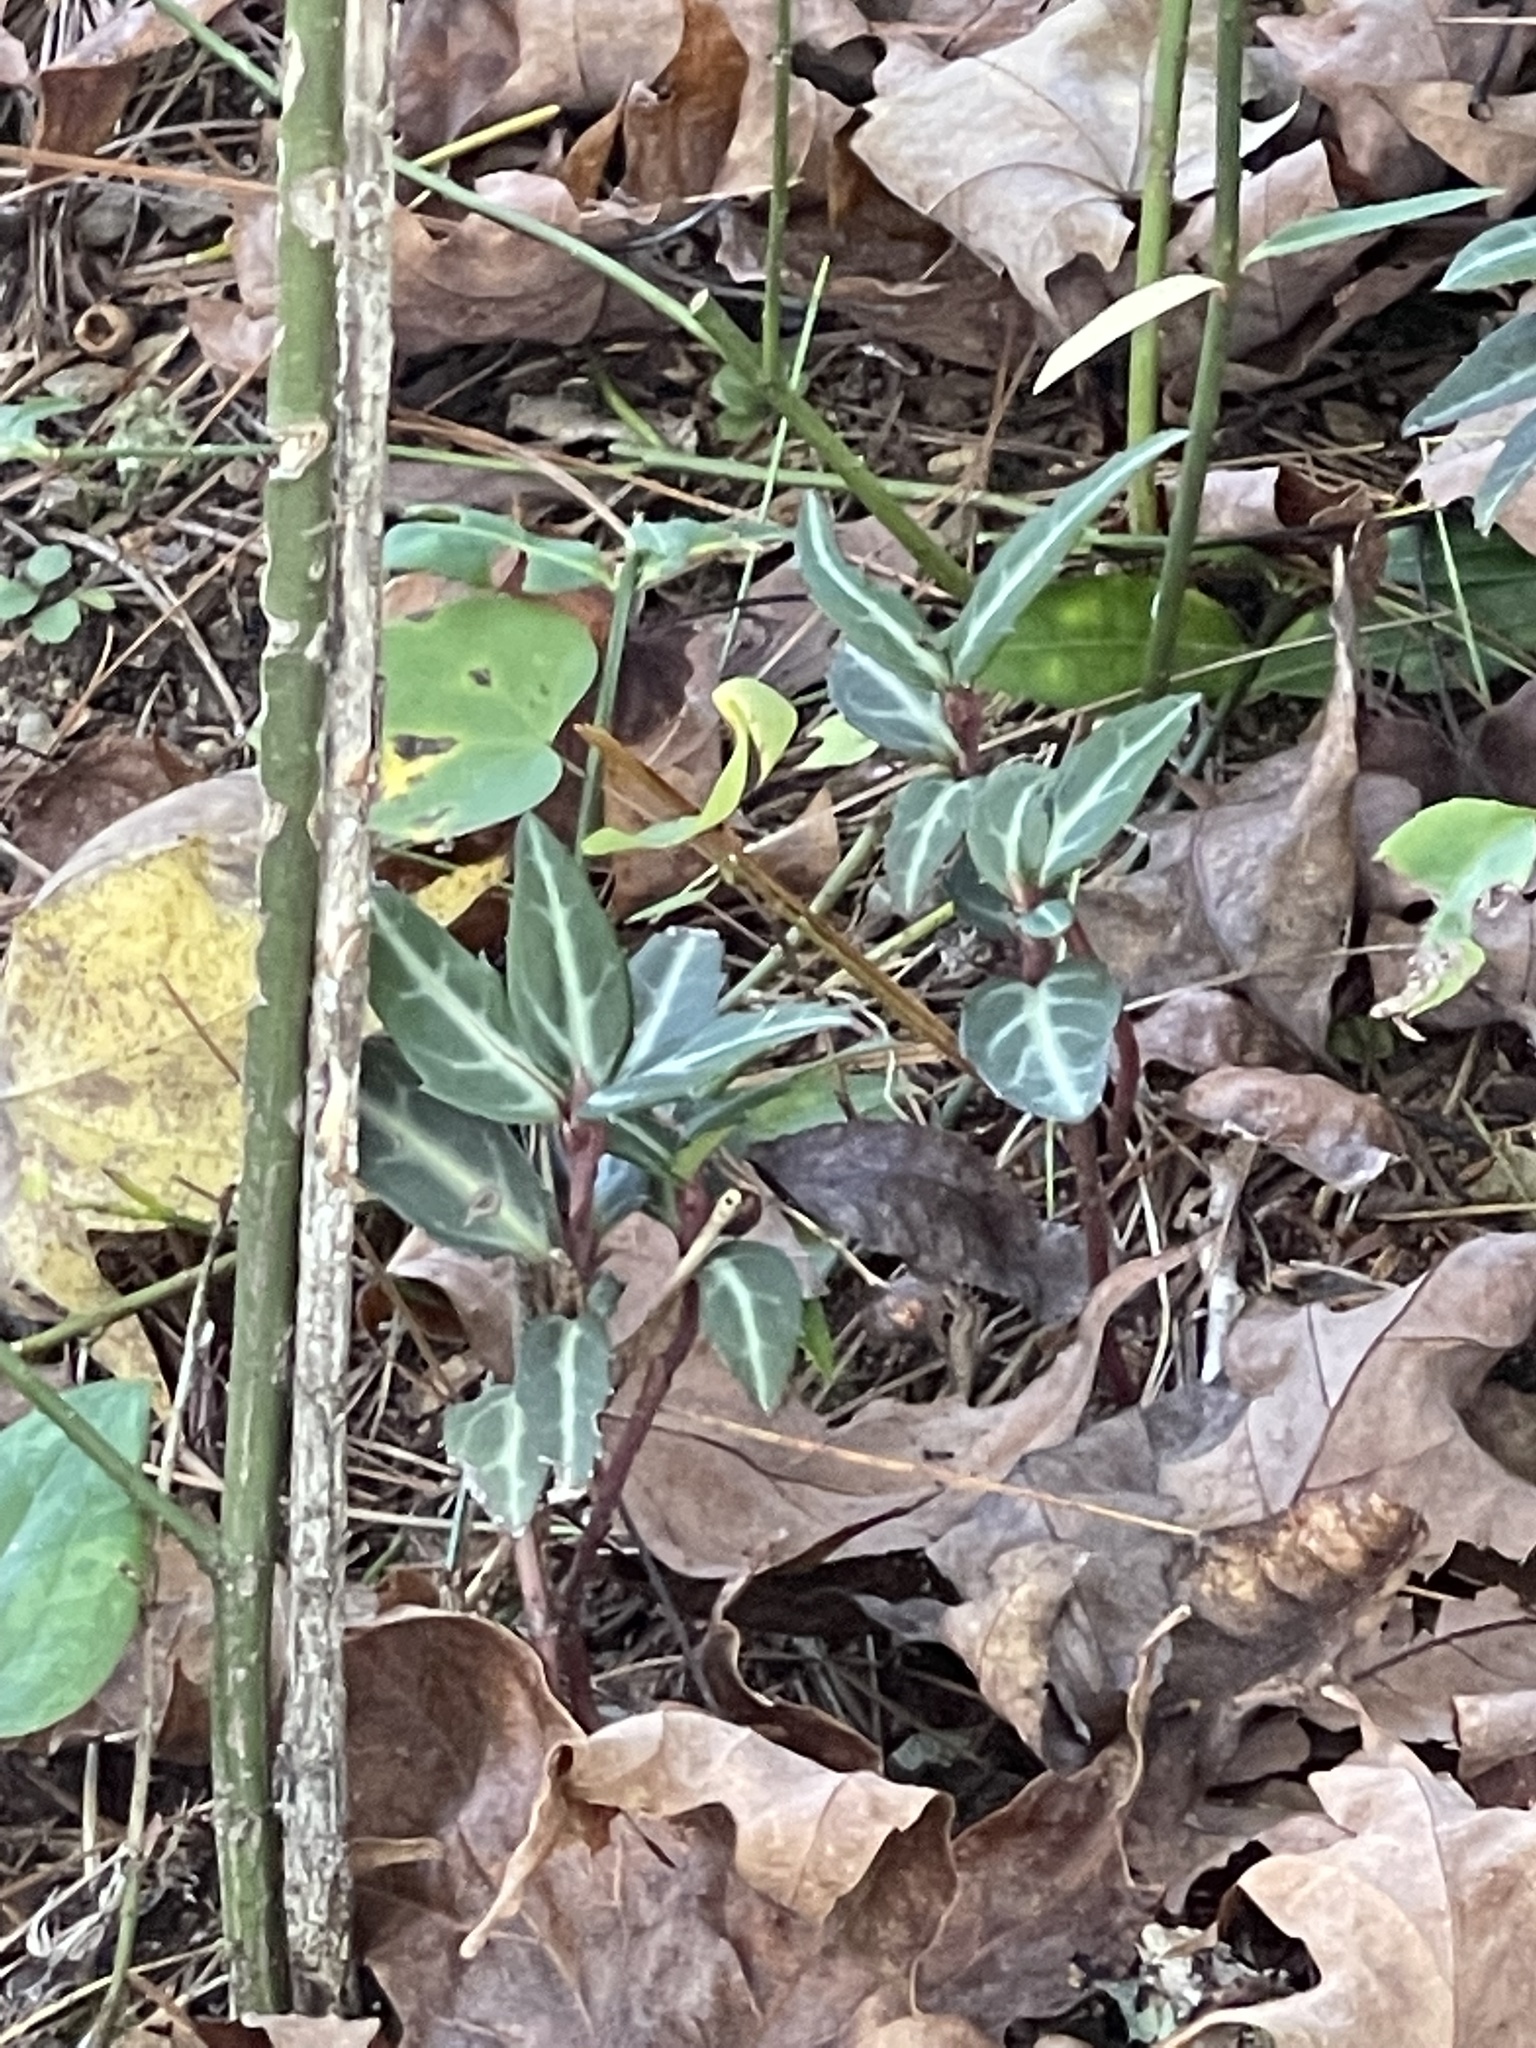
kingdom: Plantae
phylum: Tracheophyta
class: Magnoliopsida
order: Ericales
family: Ericaceae
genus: Chimaphila
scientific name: Chimaphila maculata
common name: Spotted pipsissewa
